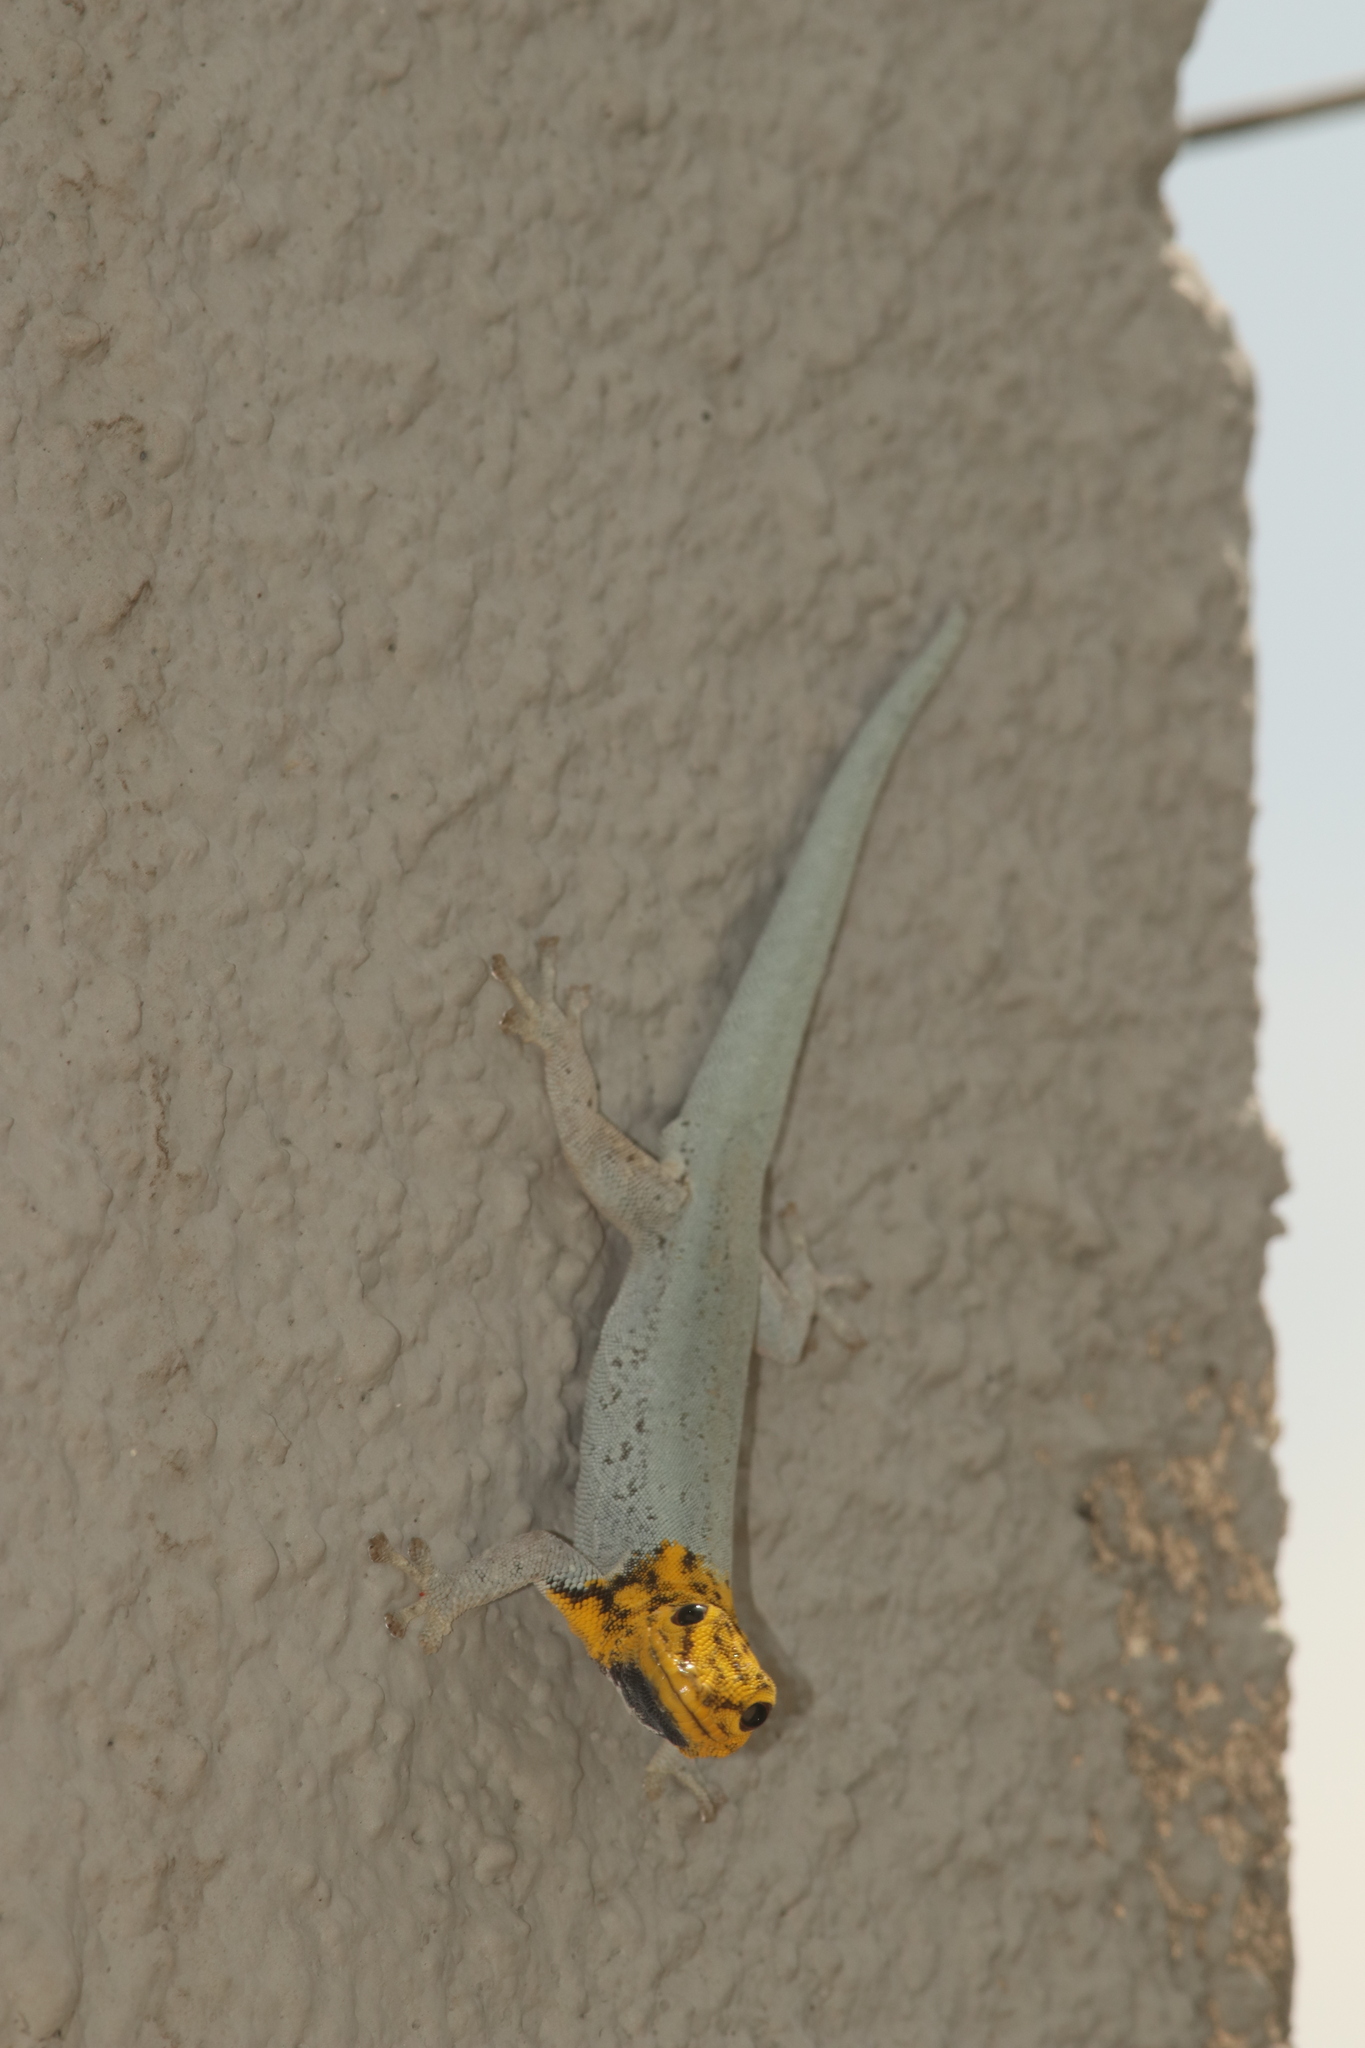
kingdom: Animalia
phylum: Chordata
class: Squamata
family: Gekkonidae
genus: Lygodactylus
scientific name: Lygodactylus picturatus
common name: Painted dwarf gecko
